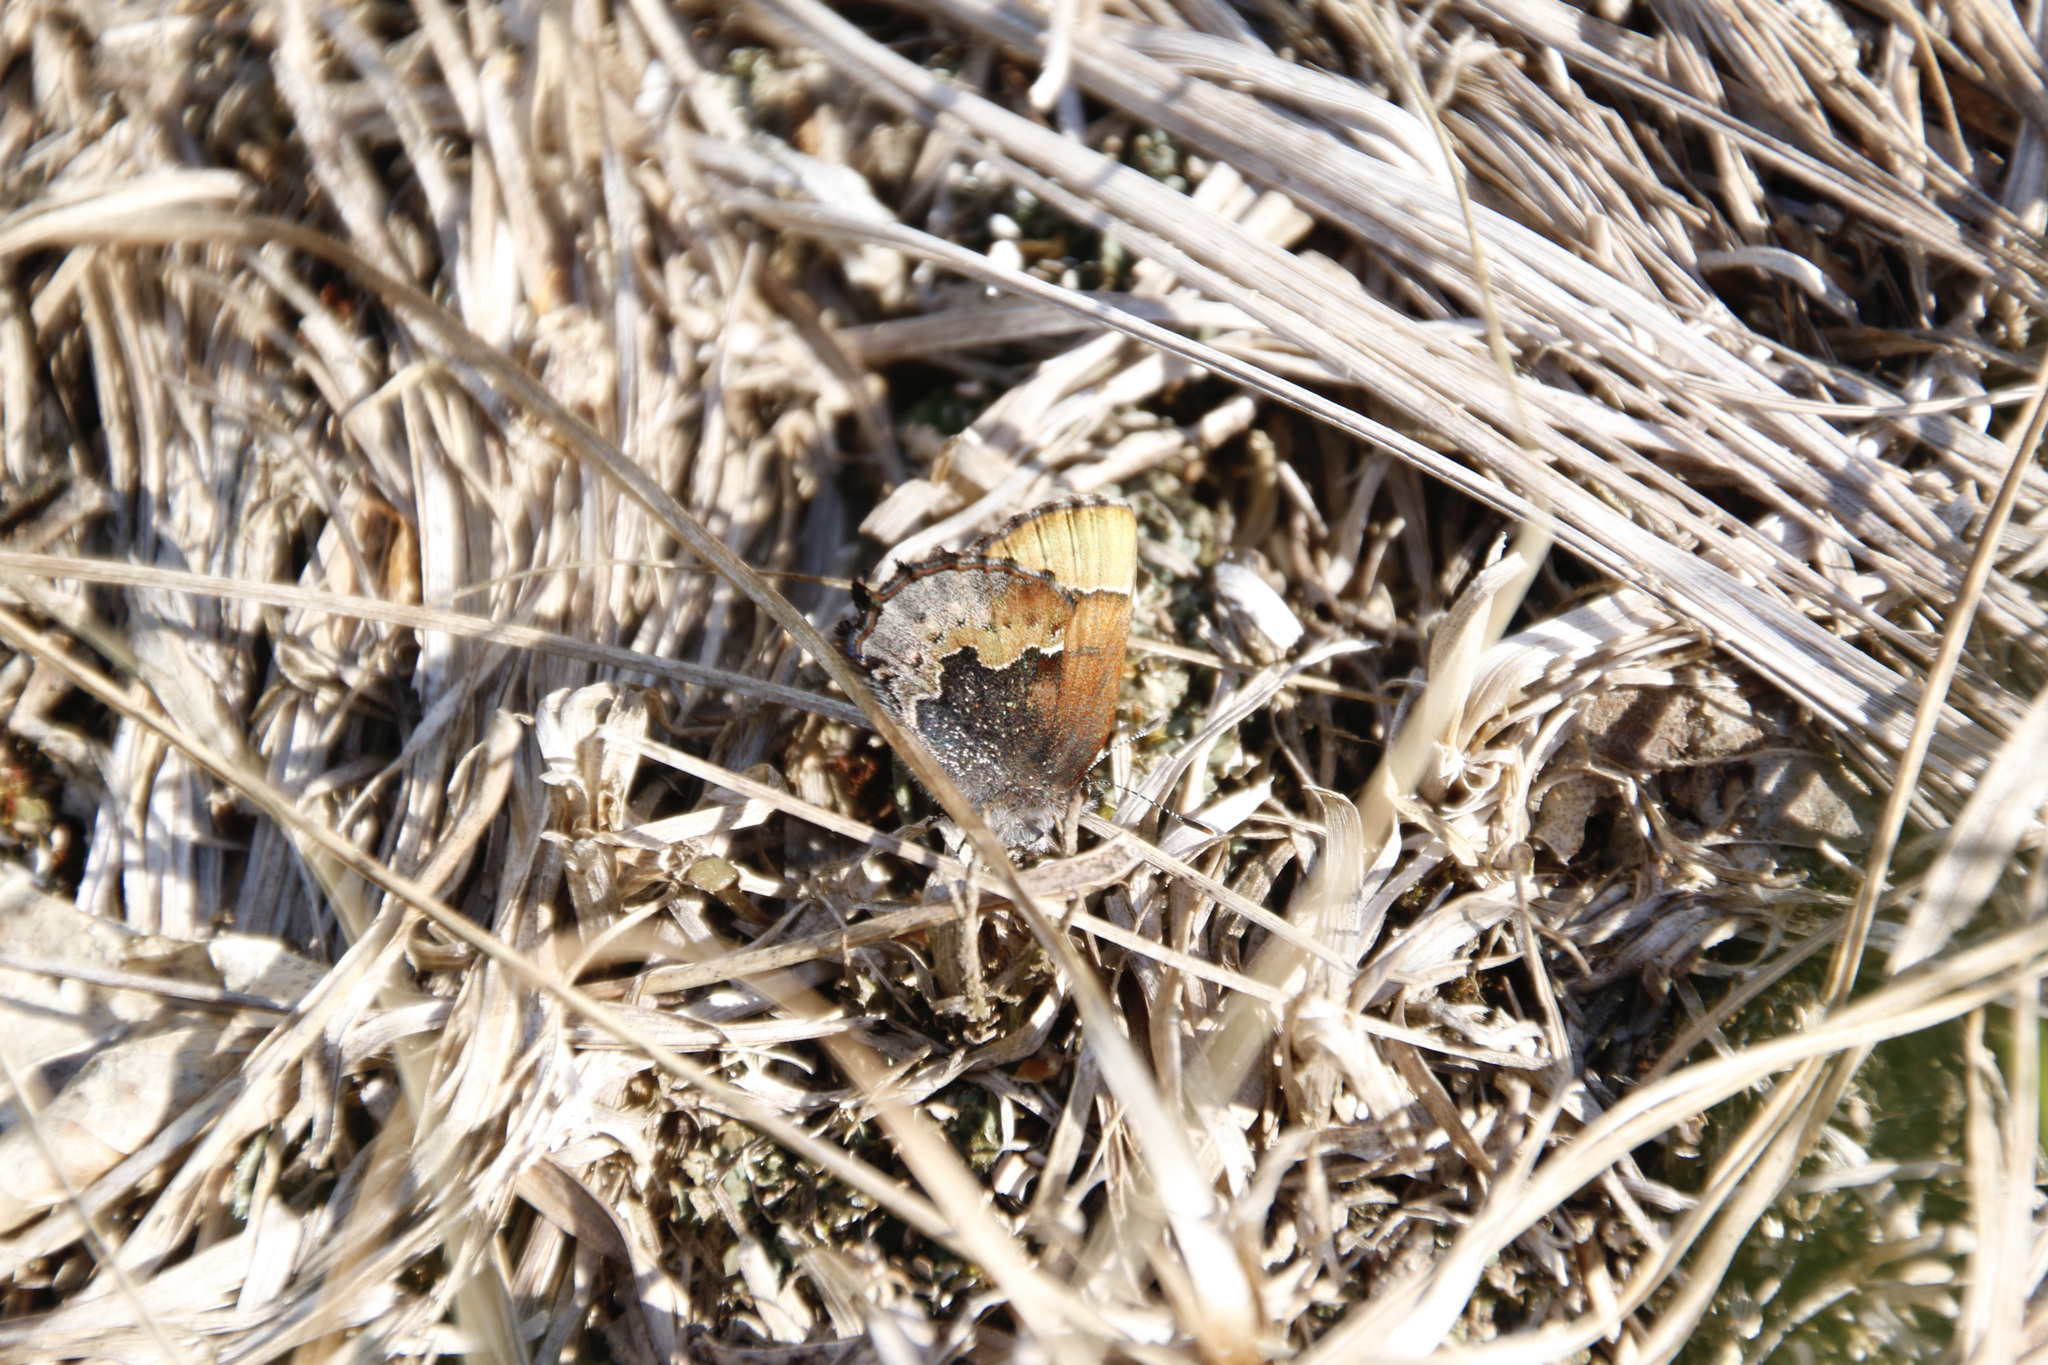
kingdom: Animalia
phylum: Arthropoda
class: Insecta
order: Lepidoptera
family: Lycaenidae
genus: Incisalia
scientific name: Incisalia henrici
